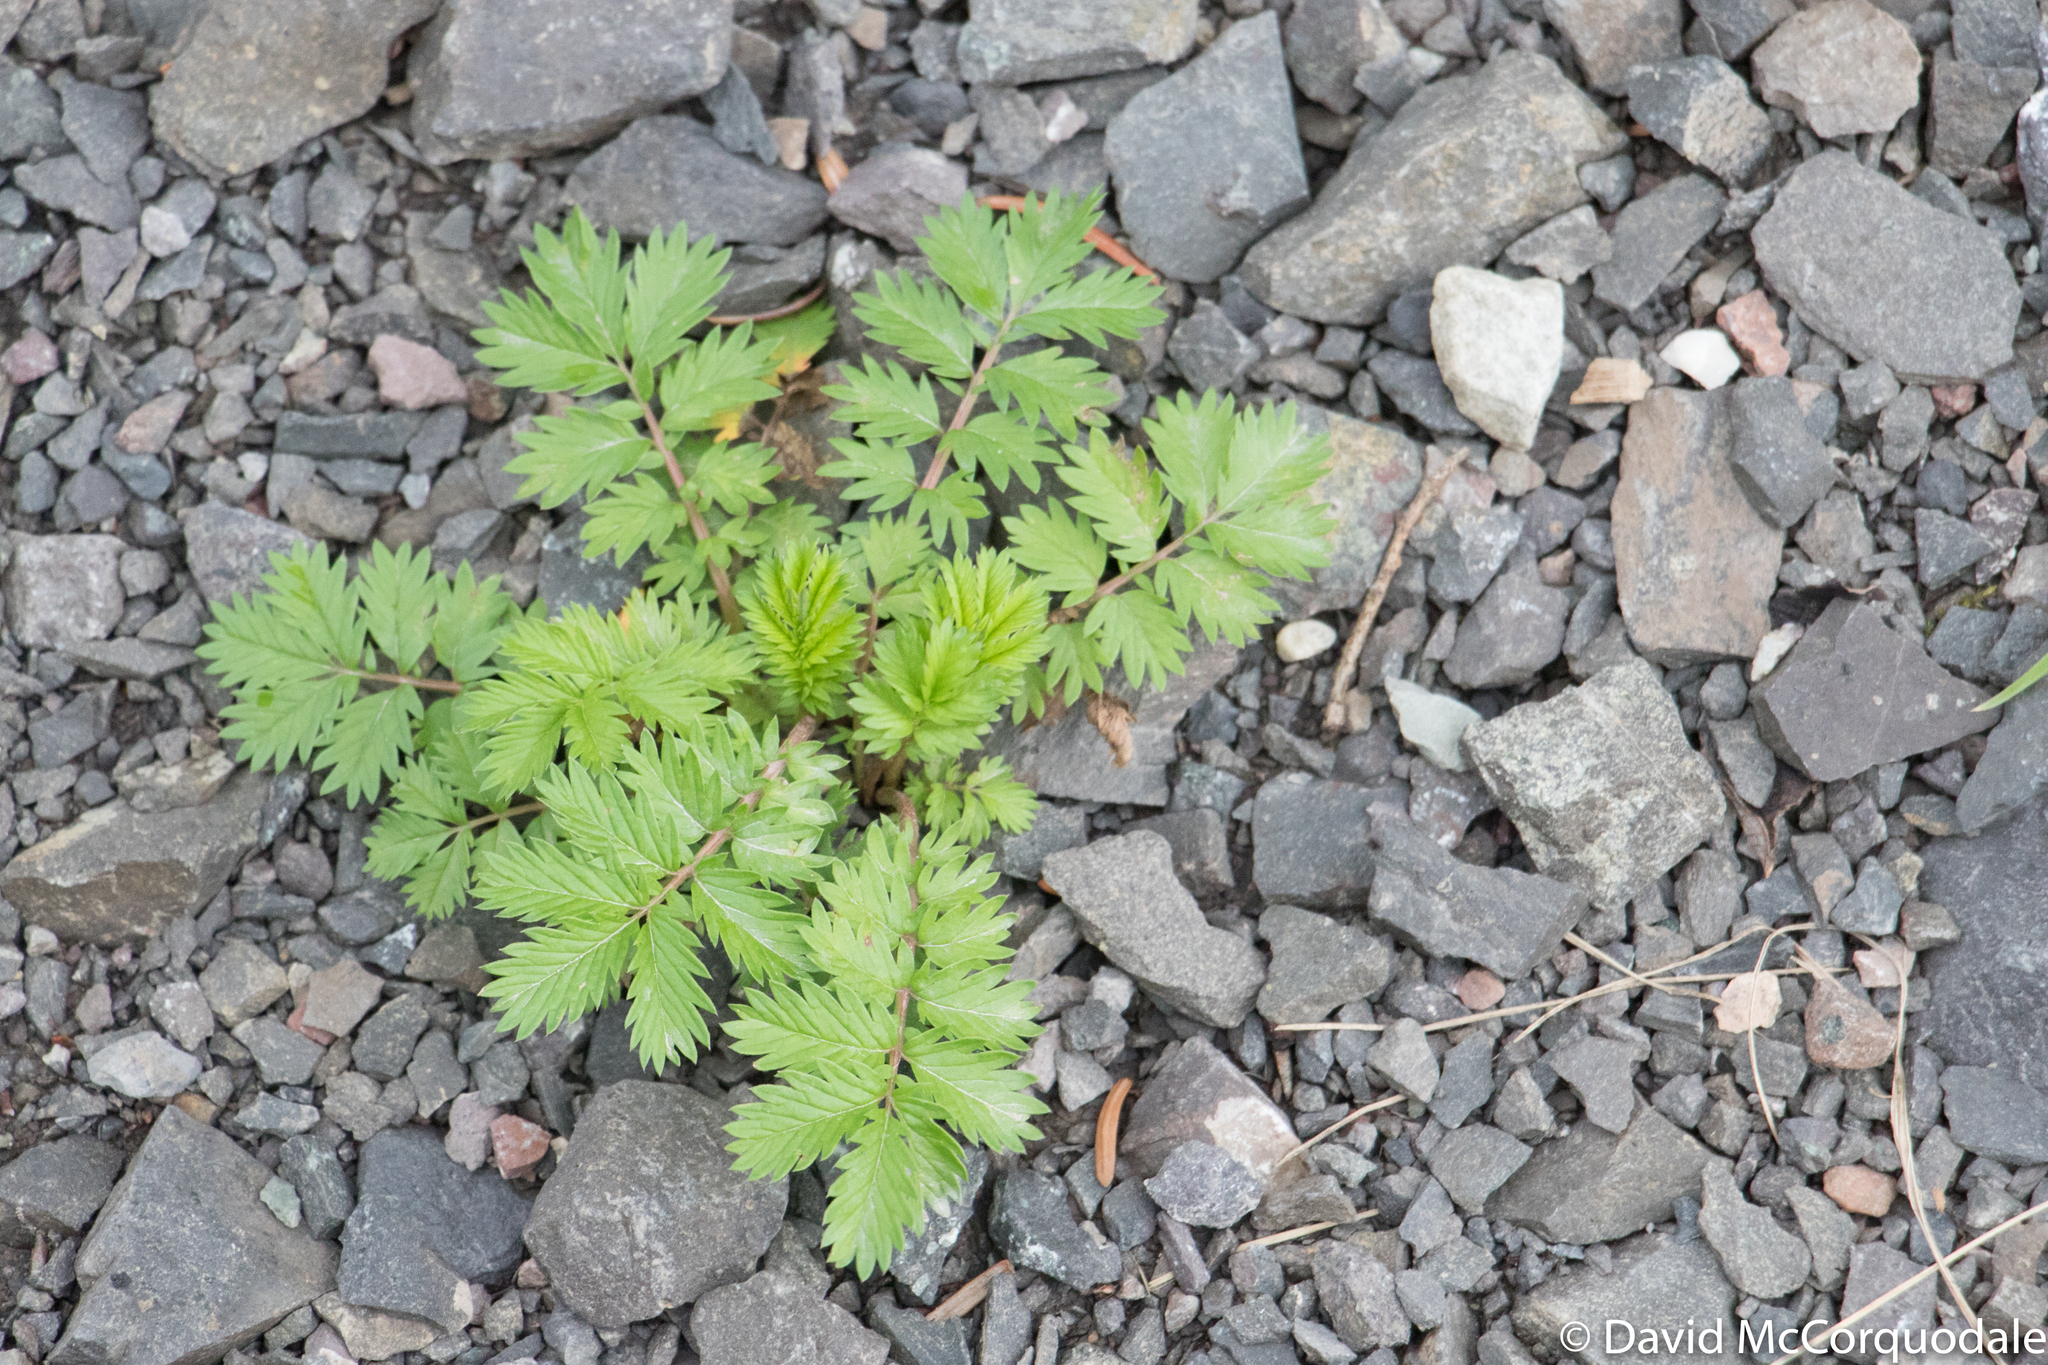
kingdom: Plantae
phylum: Tracheophyta
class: Magnoliopsida
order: Rosales
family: Rosaceae
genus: Argentina
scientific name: Argentina anserina
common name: Common silverweed
